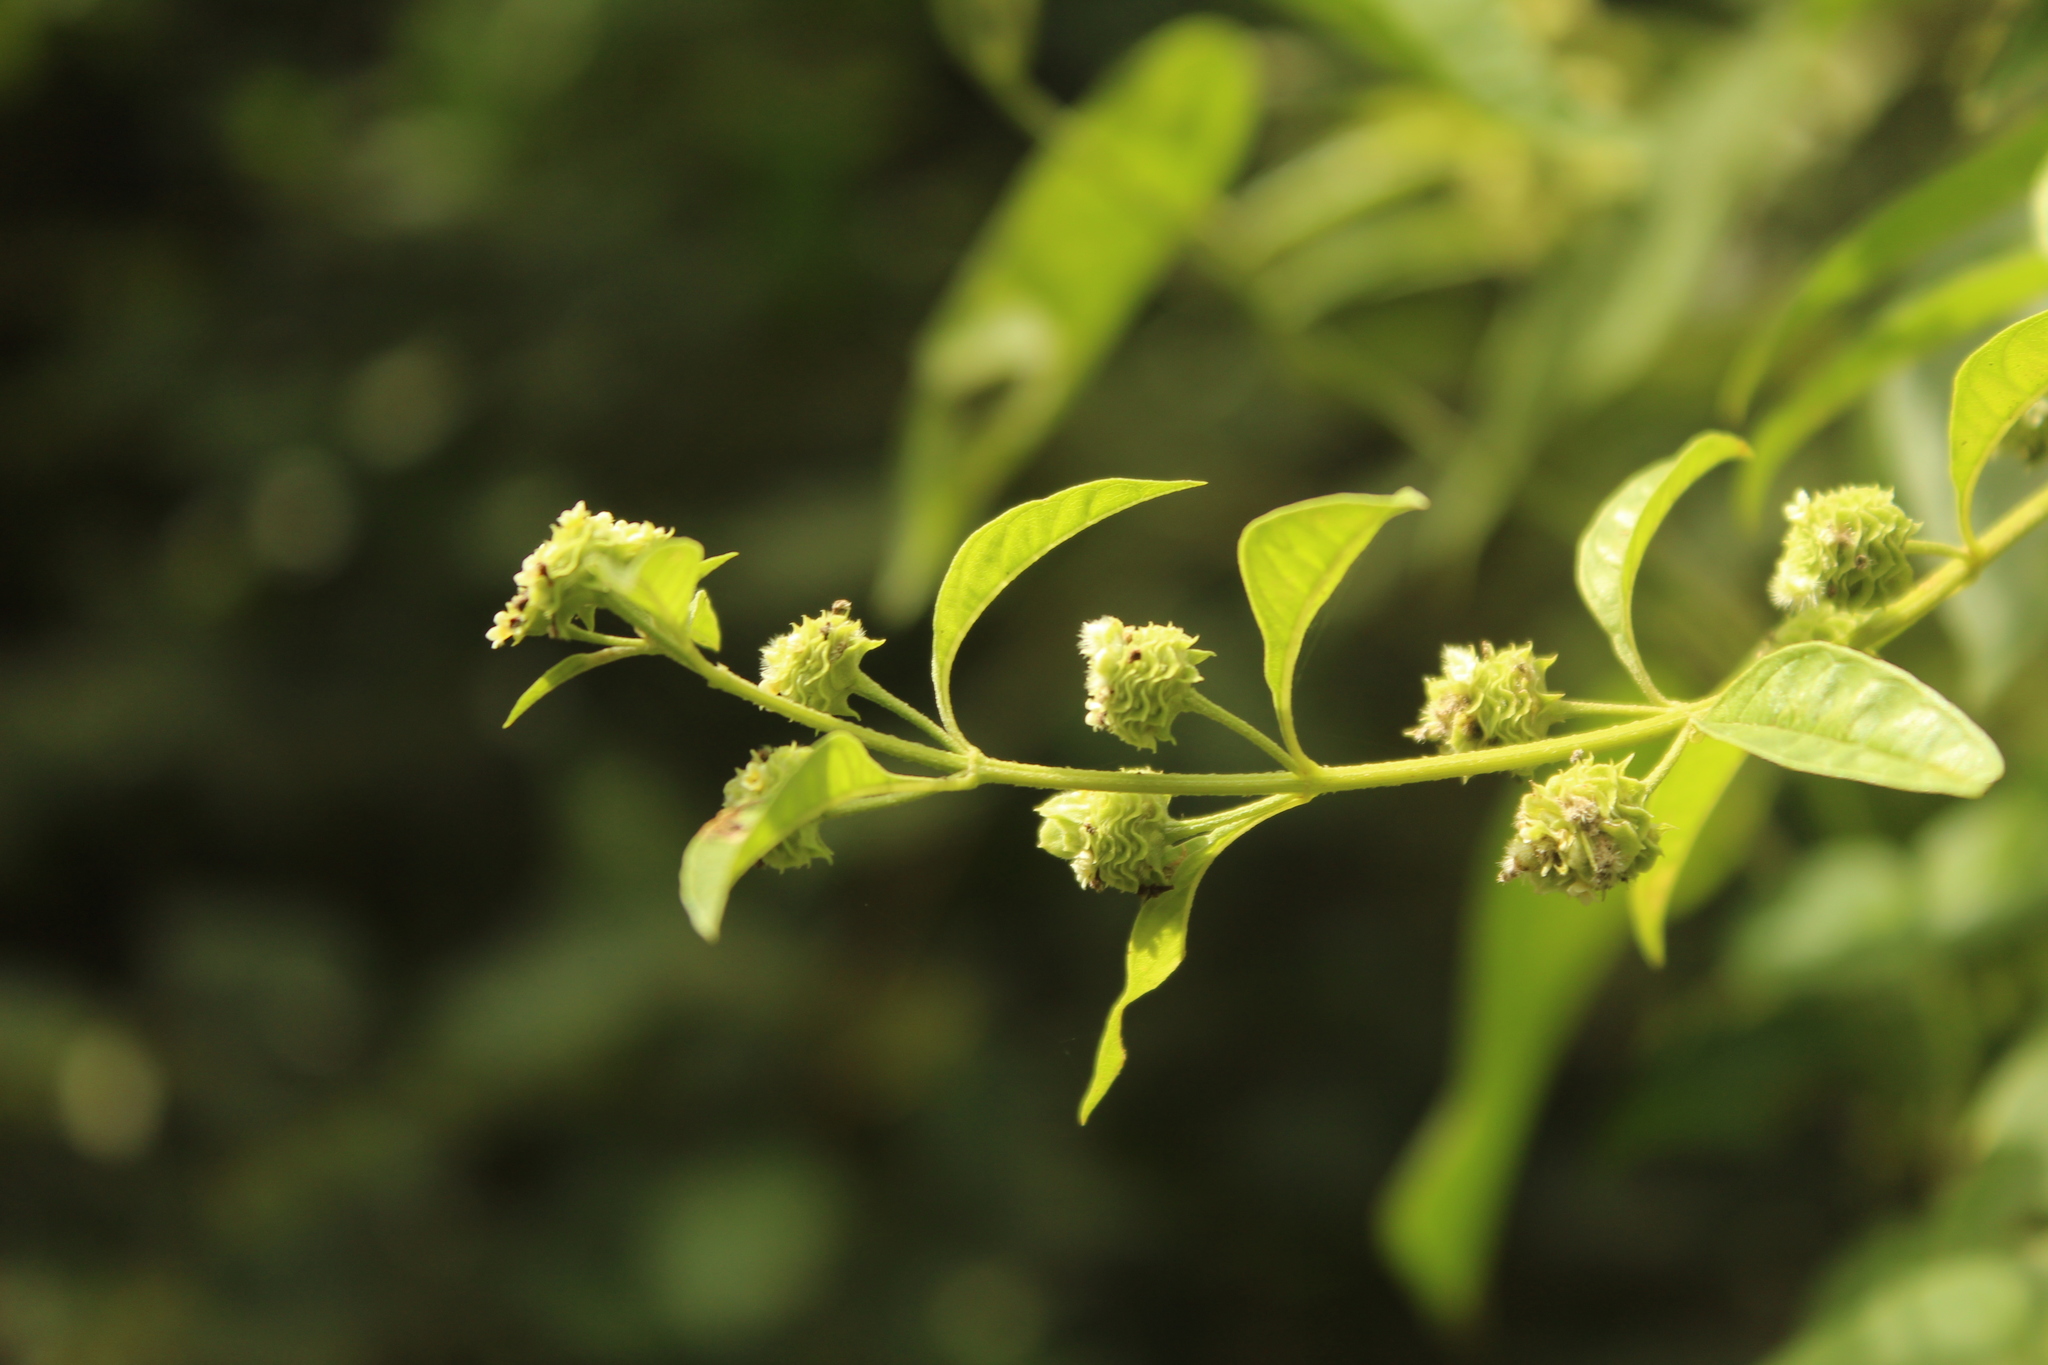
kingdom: Plantae
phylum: Tracheophyta
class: Magnoliopsida
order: Lamiales
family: Verbenaceae
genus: Lippia
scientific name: Lippia dulcis
